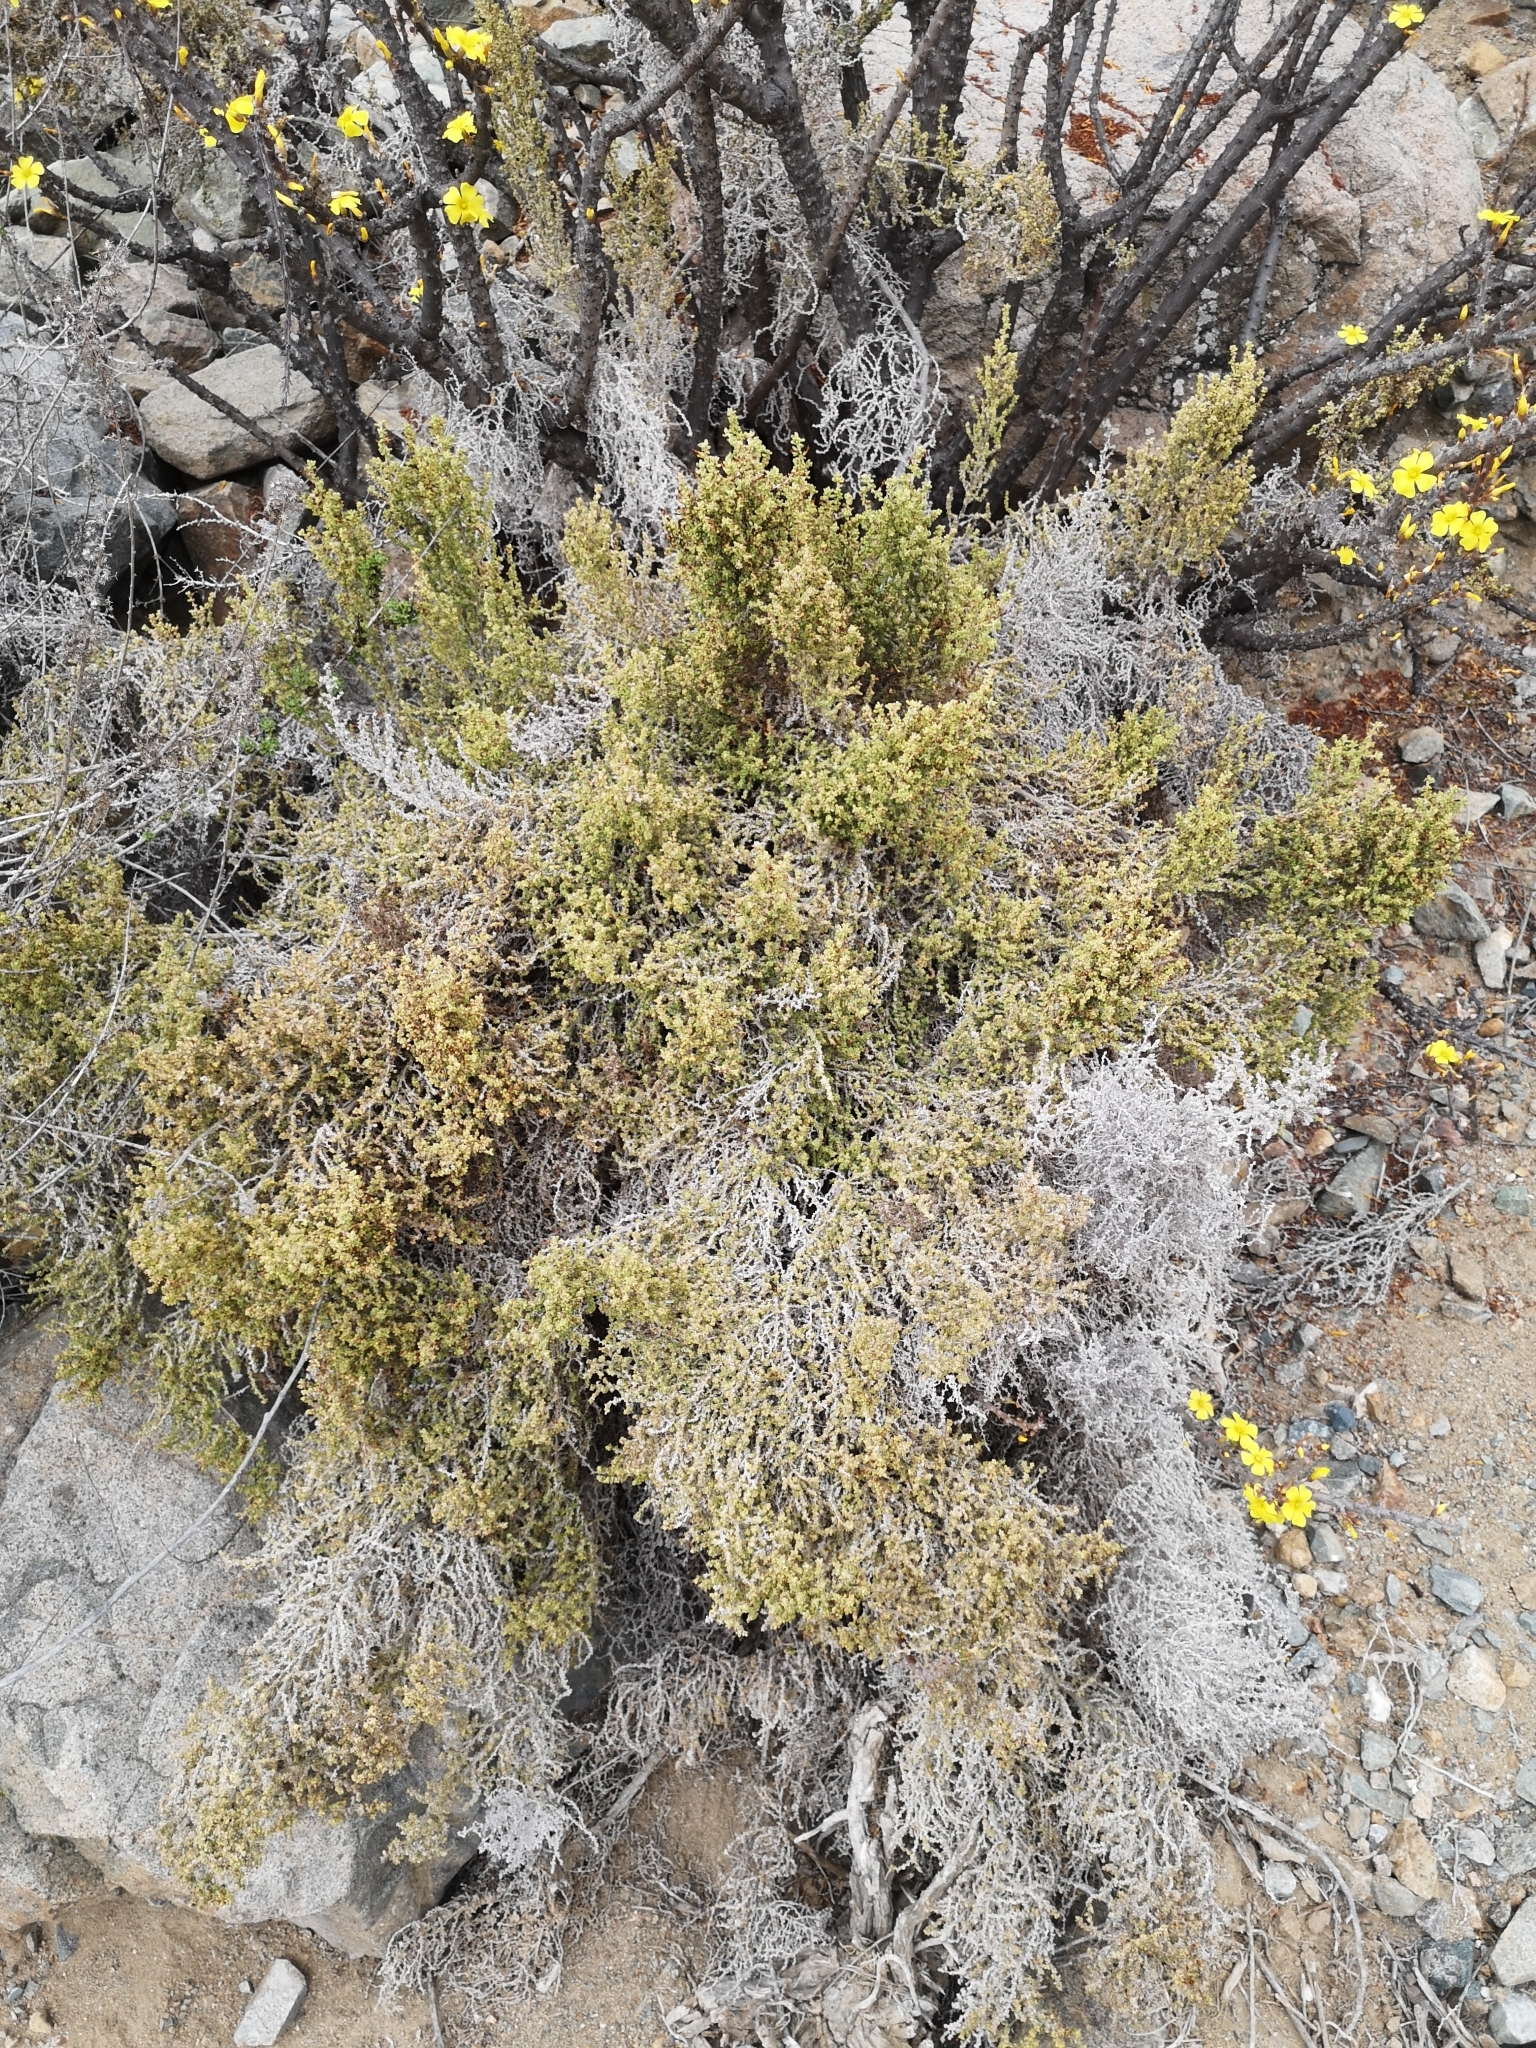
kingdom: Plantae
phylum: Tracheophyta
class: Magnoliopsida
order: Solanales
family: Solanaceae
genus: Nolana
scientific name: Nolana sedifolia
